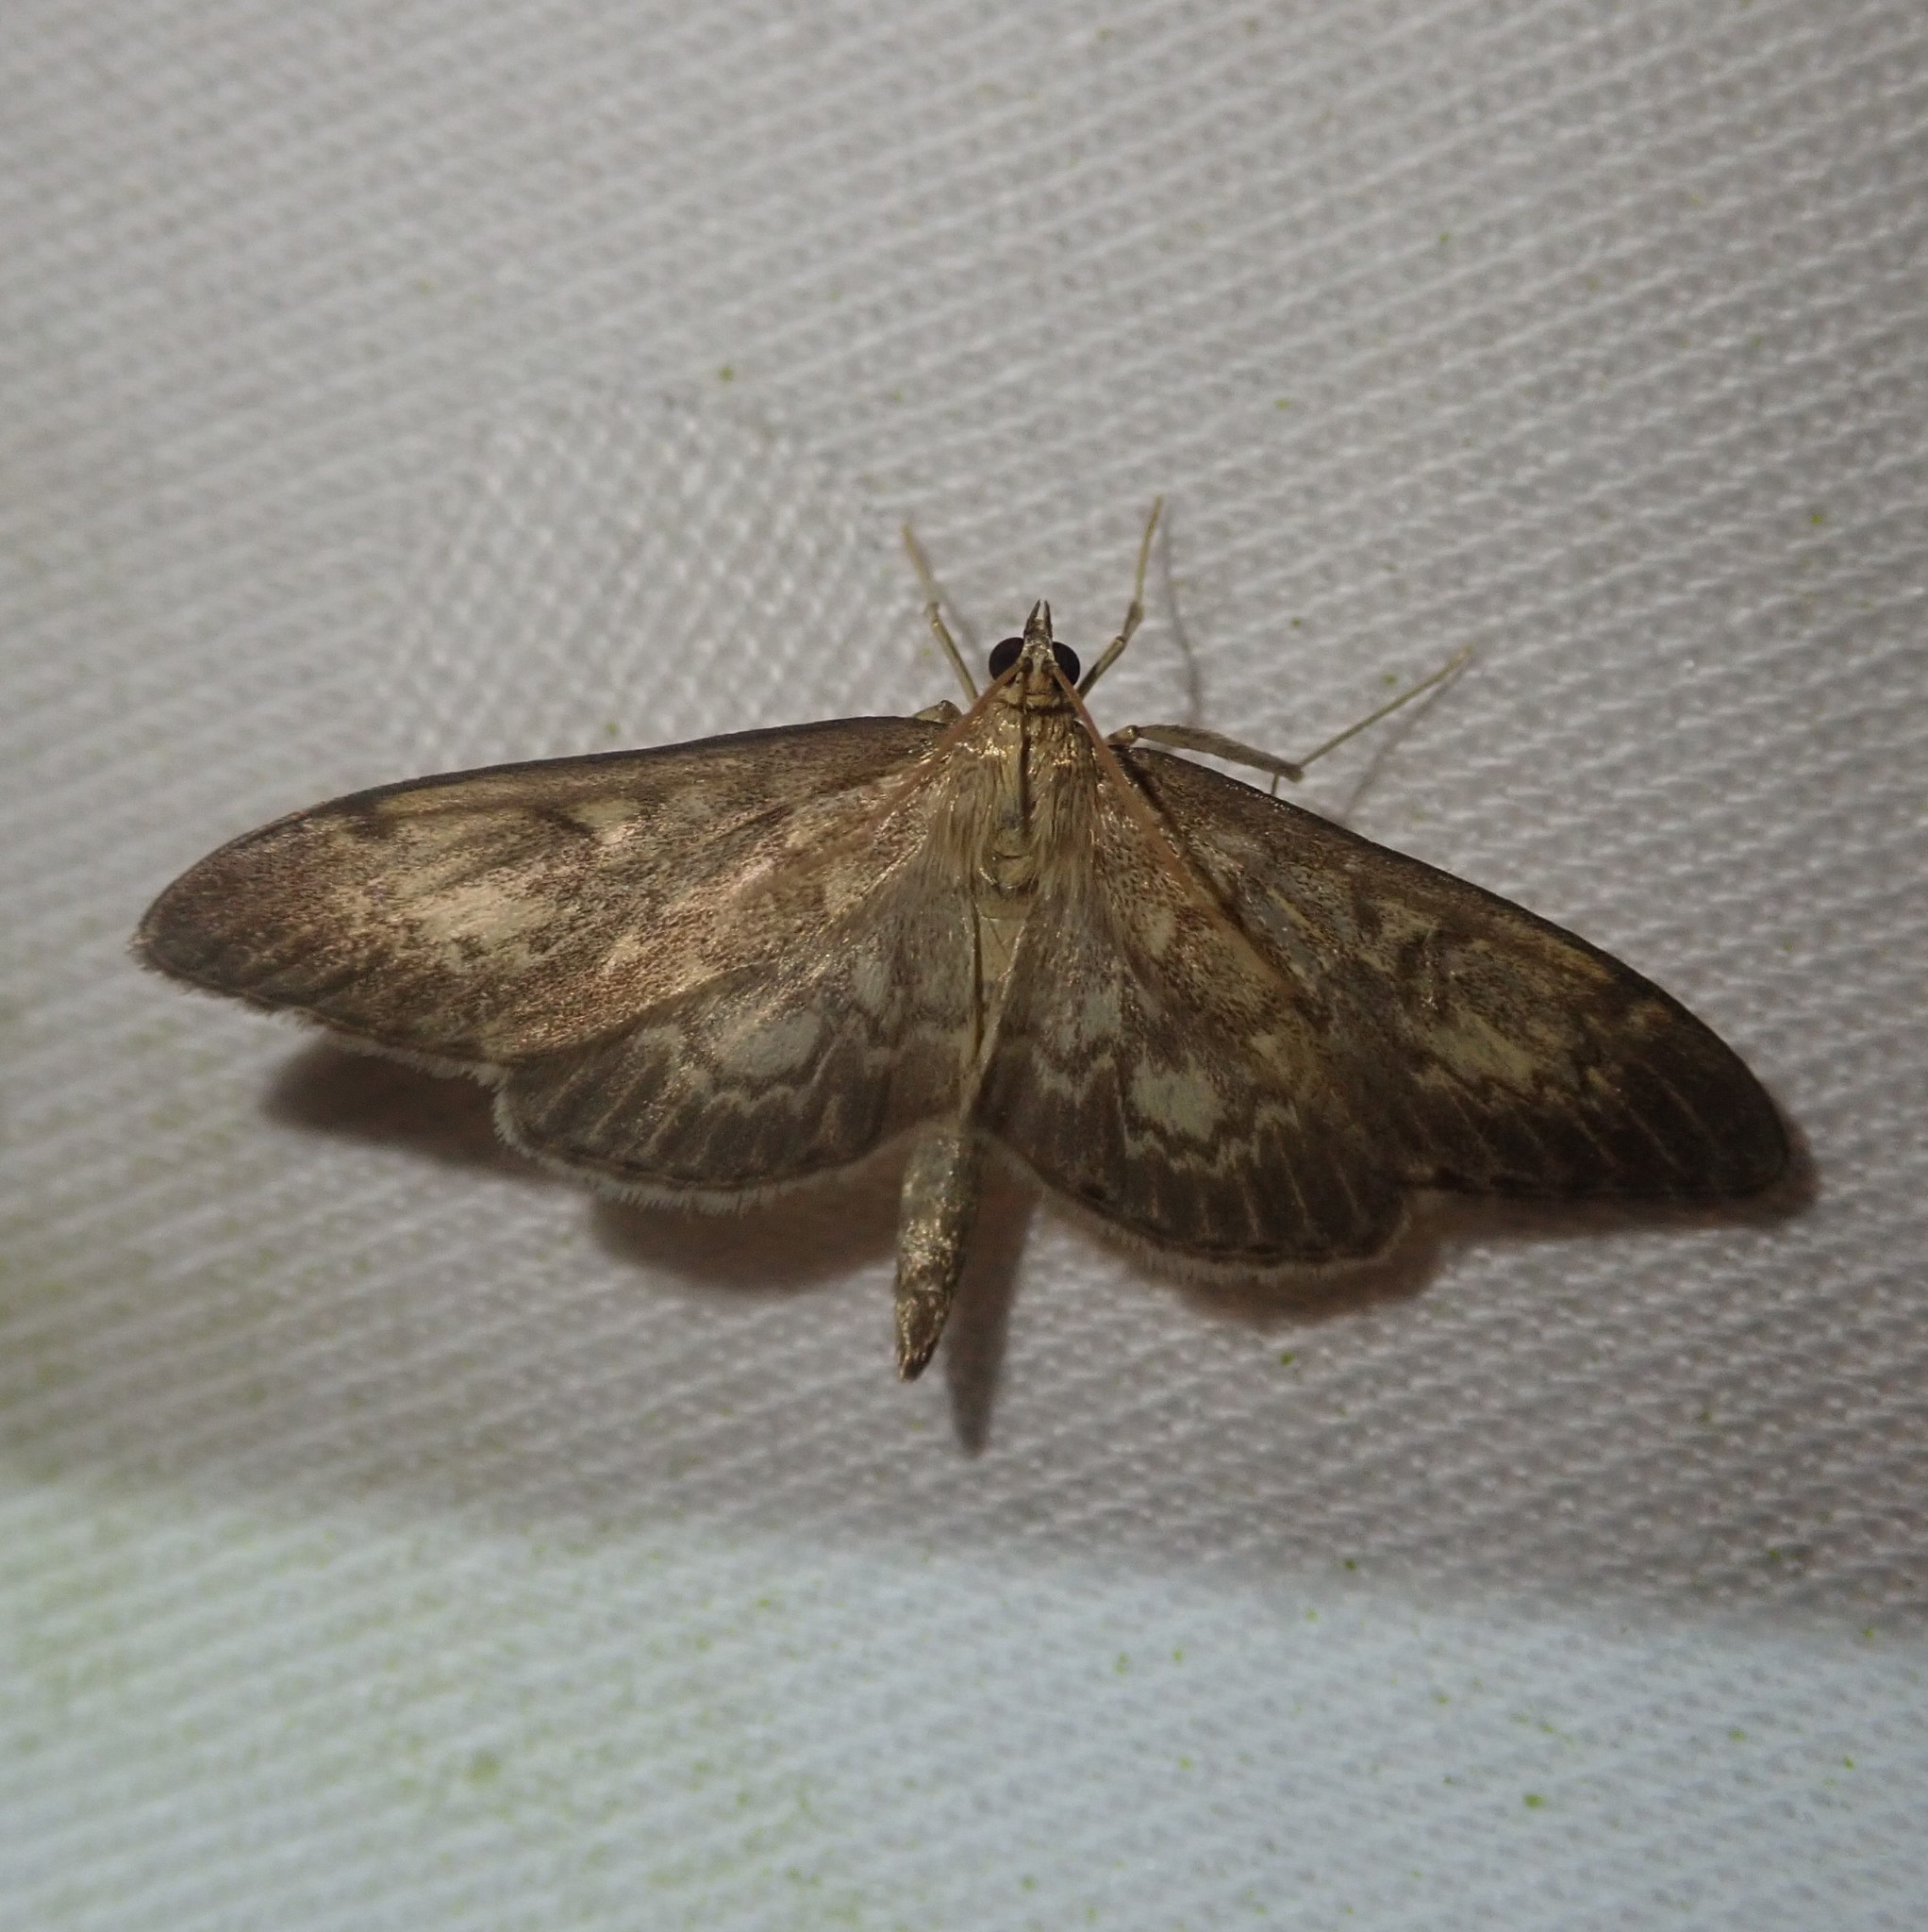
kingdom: Animalia
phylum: Arthropoda
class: Insecta
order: Lepidoptera
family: Crambidae
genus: Anania
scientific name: Anania lancealis
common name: Long-winged pearl
